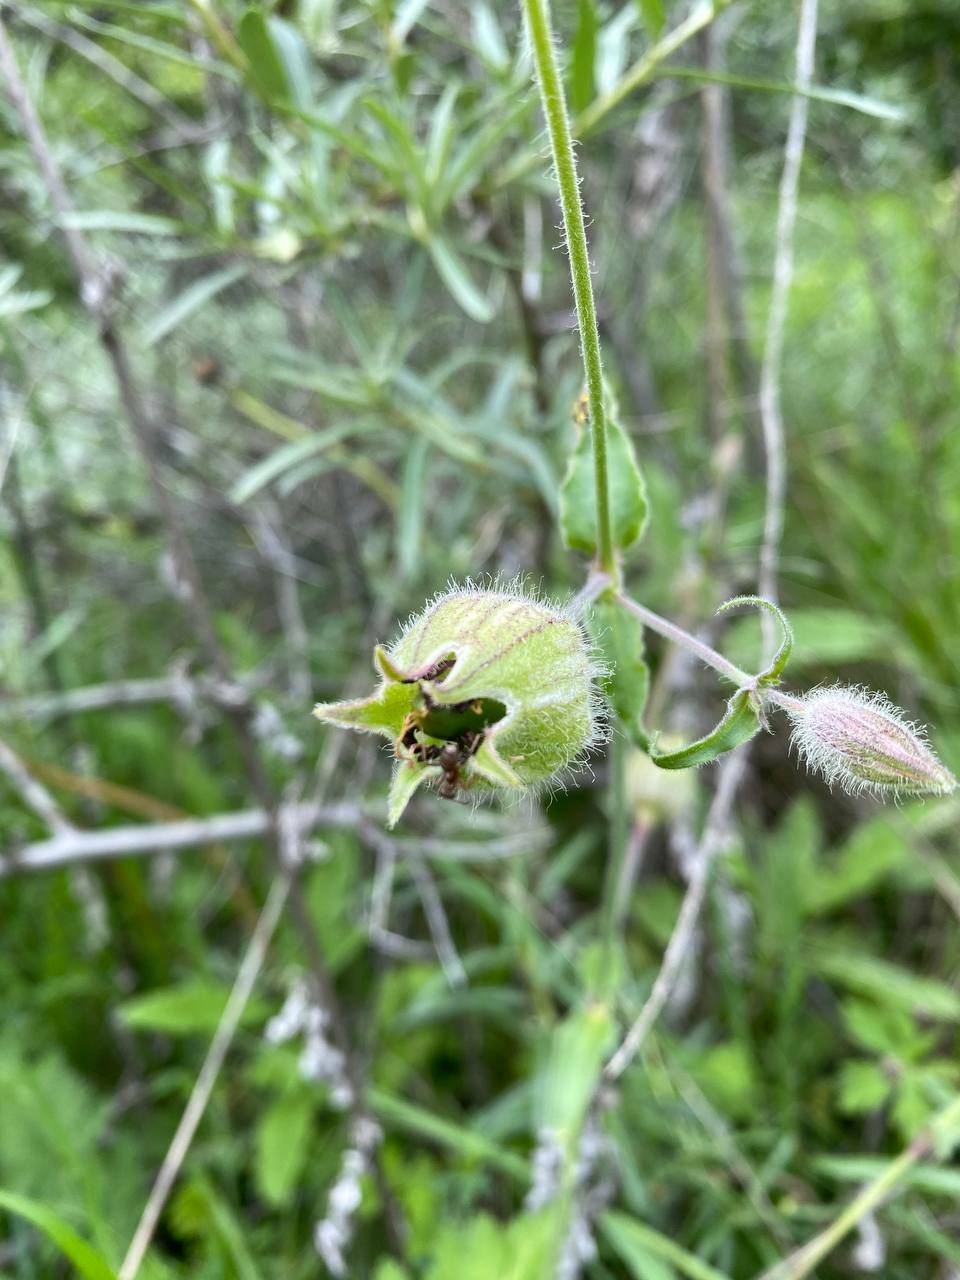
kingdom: Plantae
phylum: Tracheophyta
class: Magnoliopsida
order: Caryophyllales
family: Caryophyllaceae
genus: Silene
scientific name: Silene latifolia
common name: White campion
